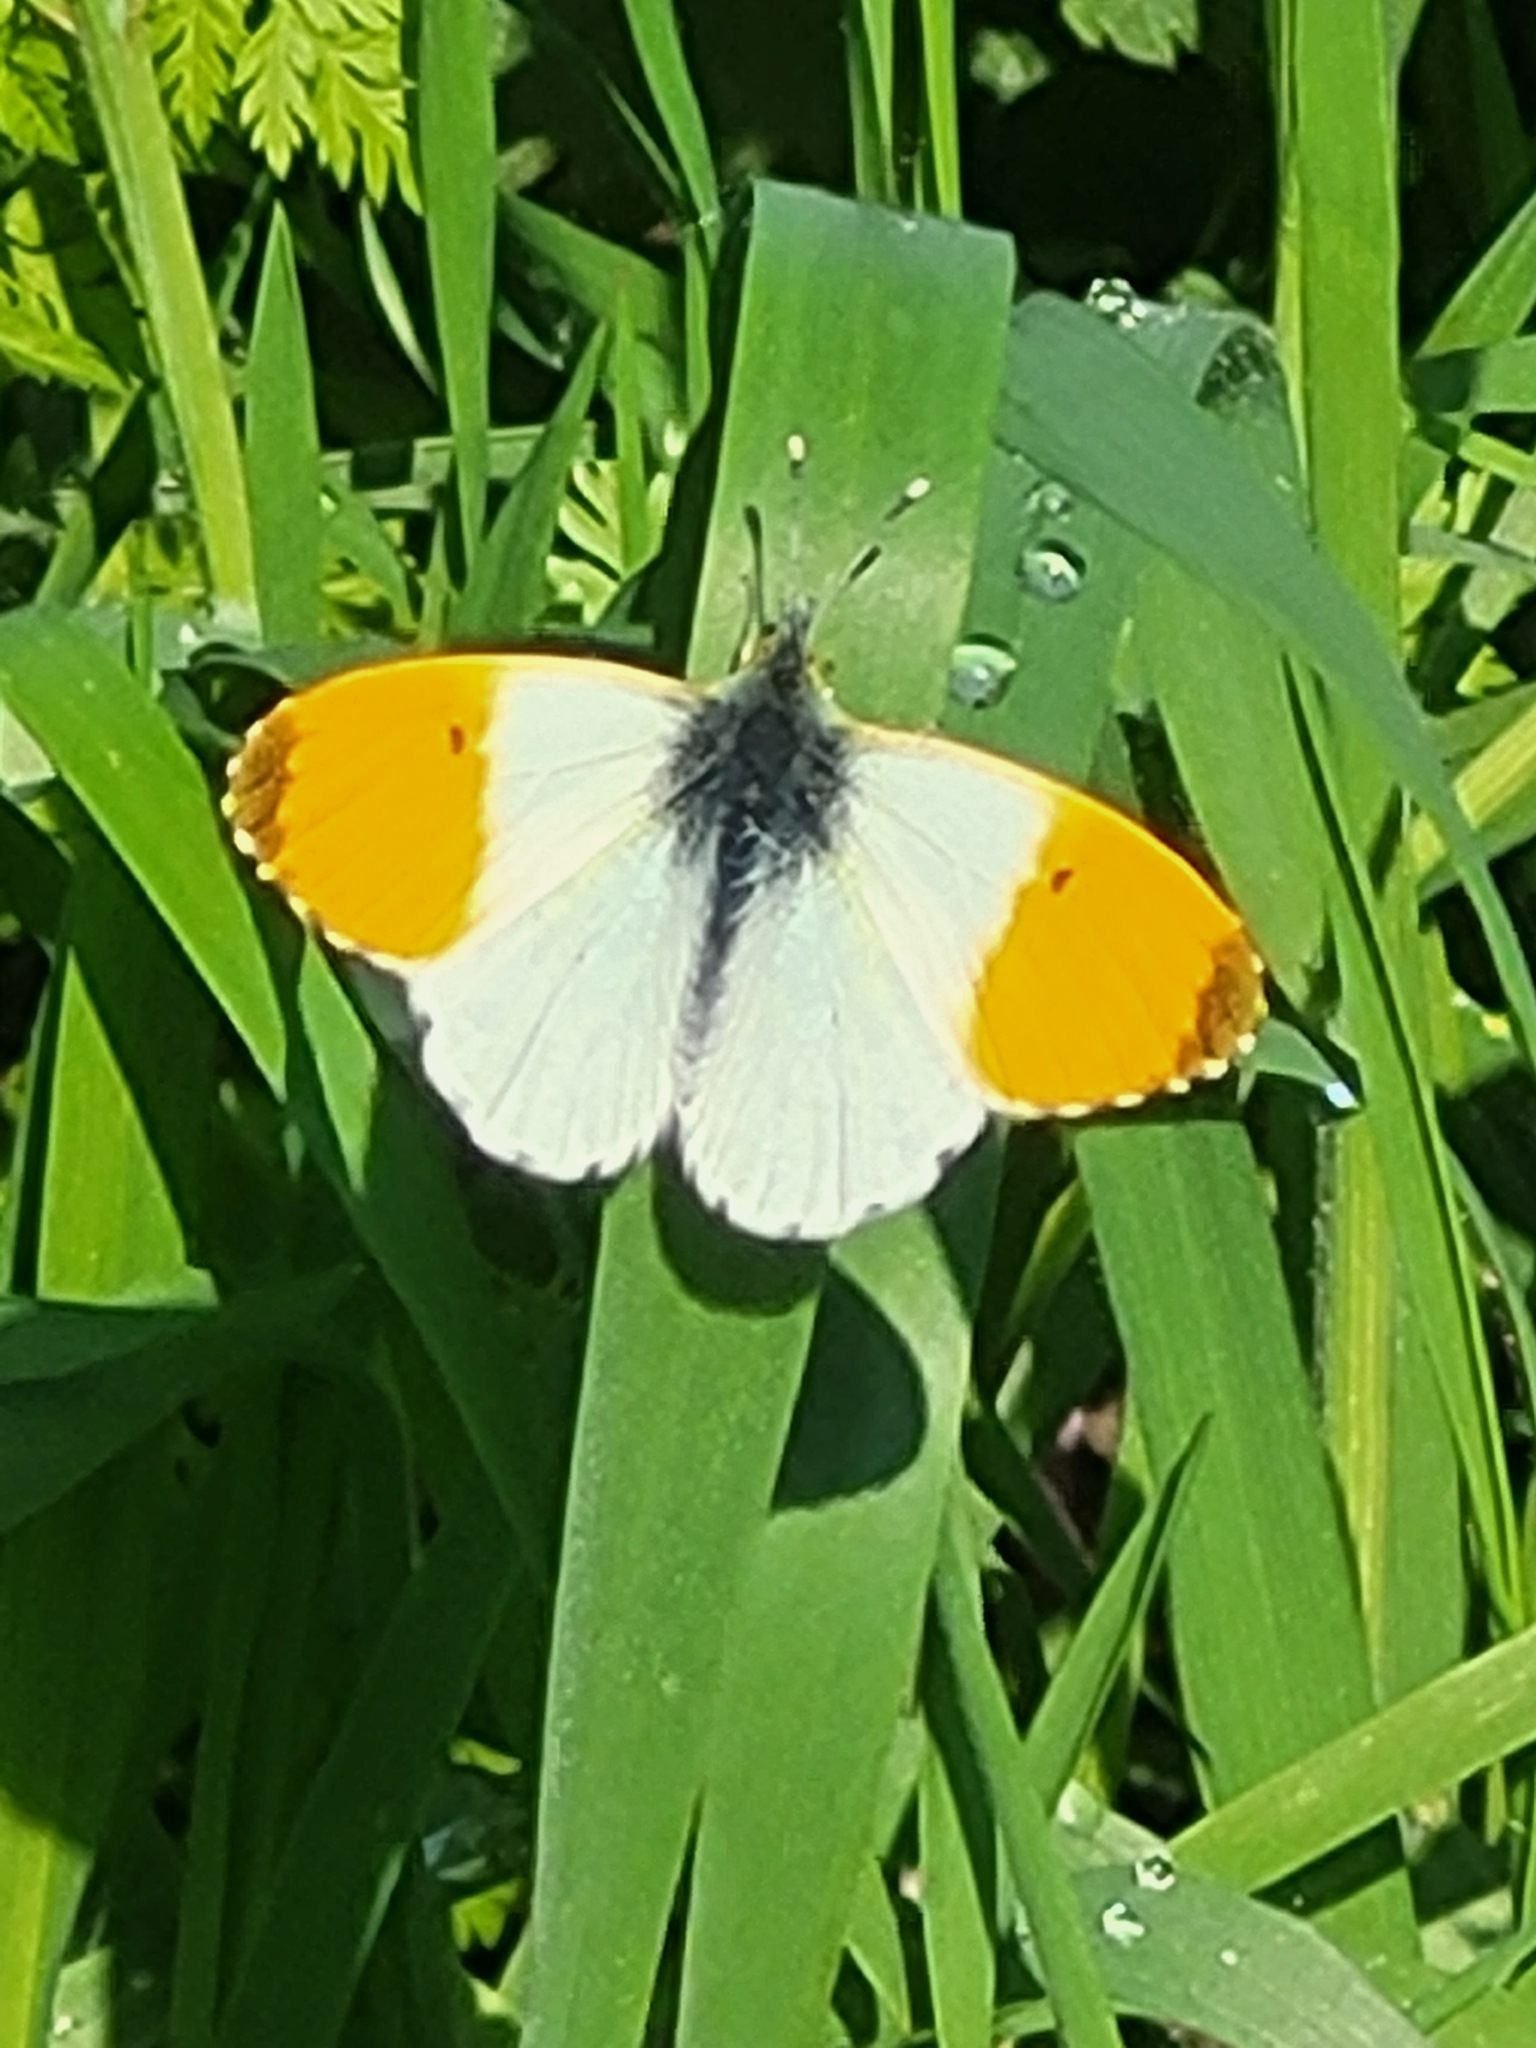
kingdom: Animalia
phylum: Arthropoda
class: Insecta
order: Lepidoptera
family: Pieridae
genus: Anthocharis
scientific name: Anthocharis cardamines
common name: Orange-tip
